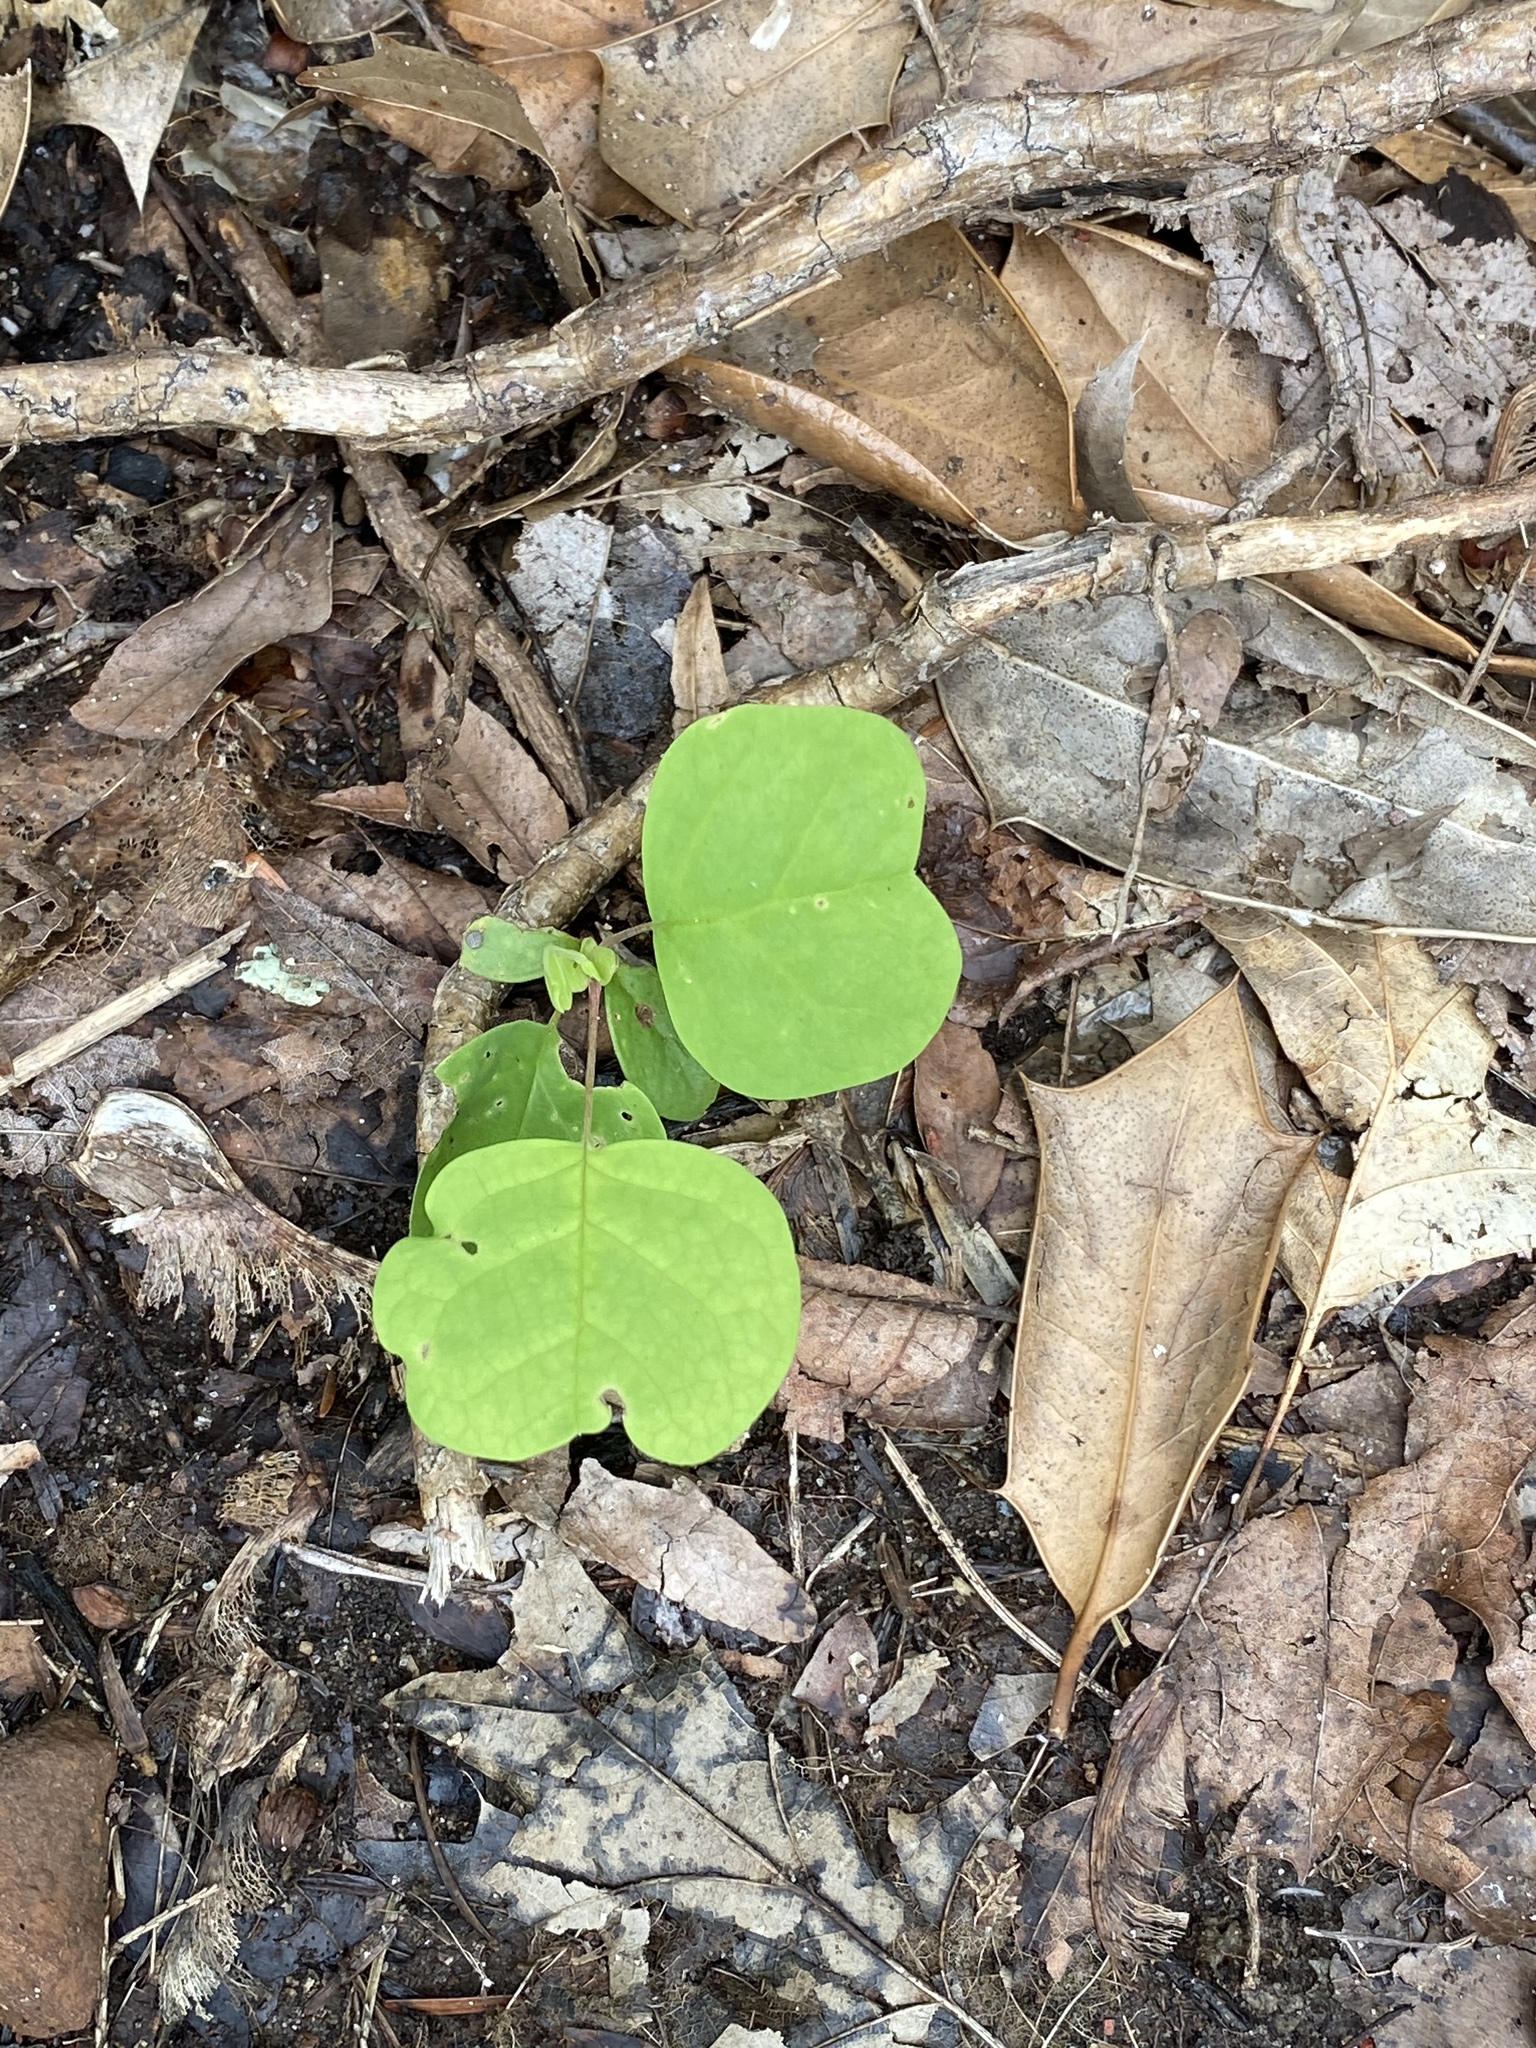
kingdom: Plantae
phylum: Tracheophyta
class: Magnoliopsida
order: Magnoliales
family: Magnoliaceae
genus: Liriodendron
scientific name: Liriodendron tulipifera
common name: Tulip tree
